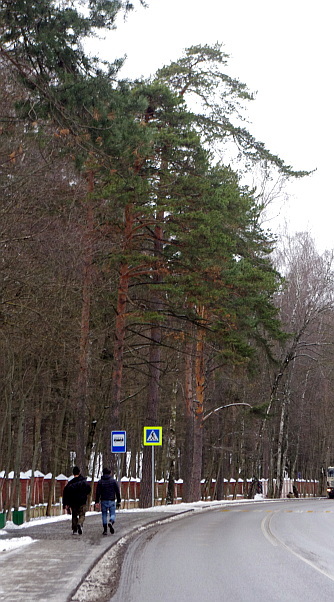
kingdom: Plantae
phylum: Tracheophyta
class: Pinopsida
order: Pinales
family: Pinaceae
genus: Pinus
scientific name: Pinus sylvestris
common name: Scots pine
